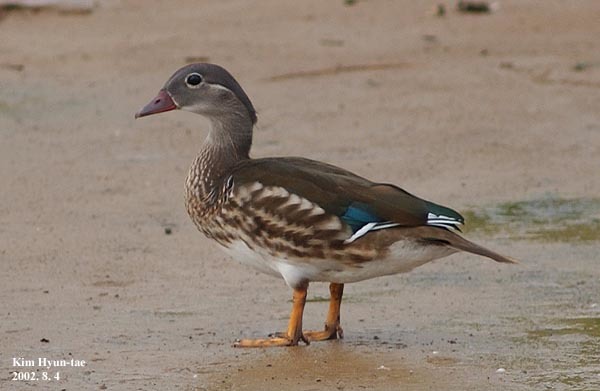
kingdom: Animalia
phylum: Chordata
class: Aves
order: Anseriformes
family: Anatidae
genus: Aix
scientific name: Aix galericulata
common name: Mandarin duck
